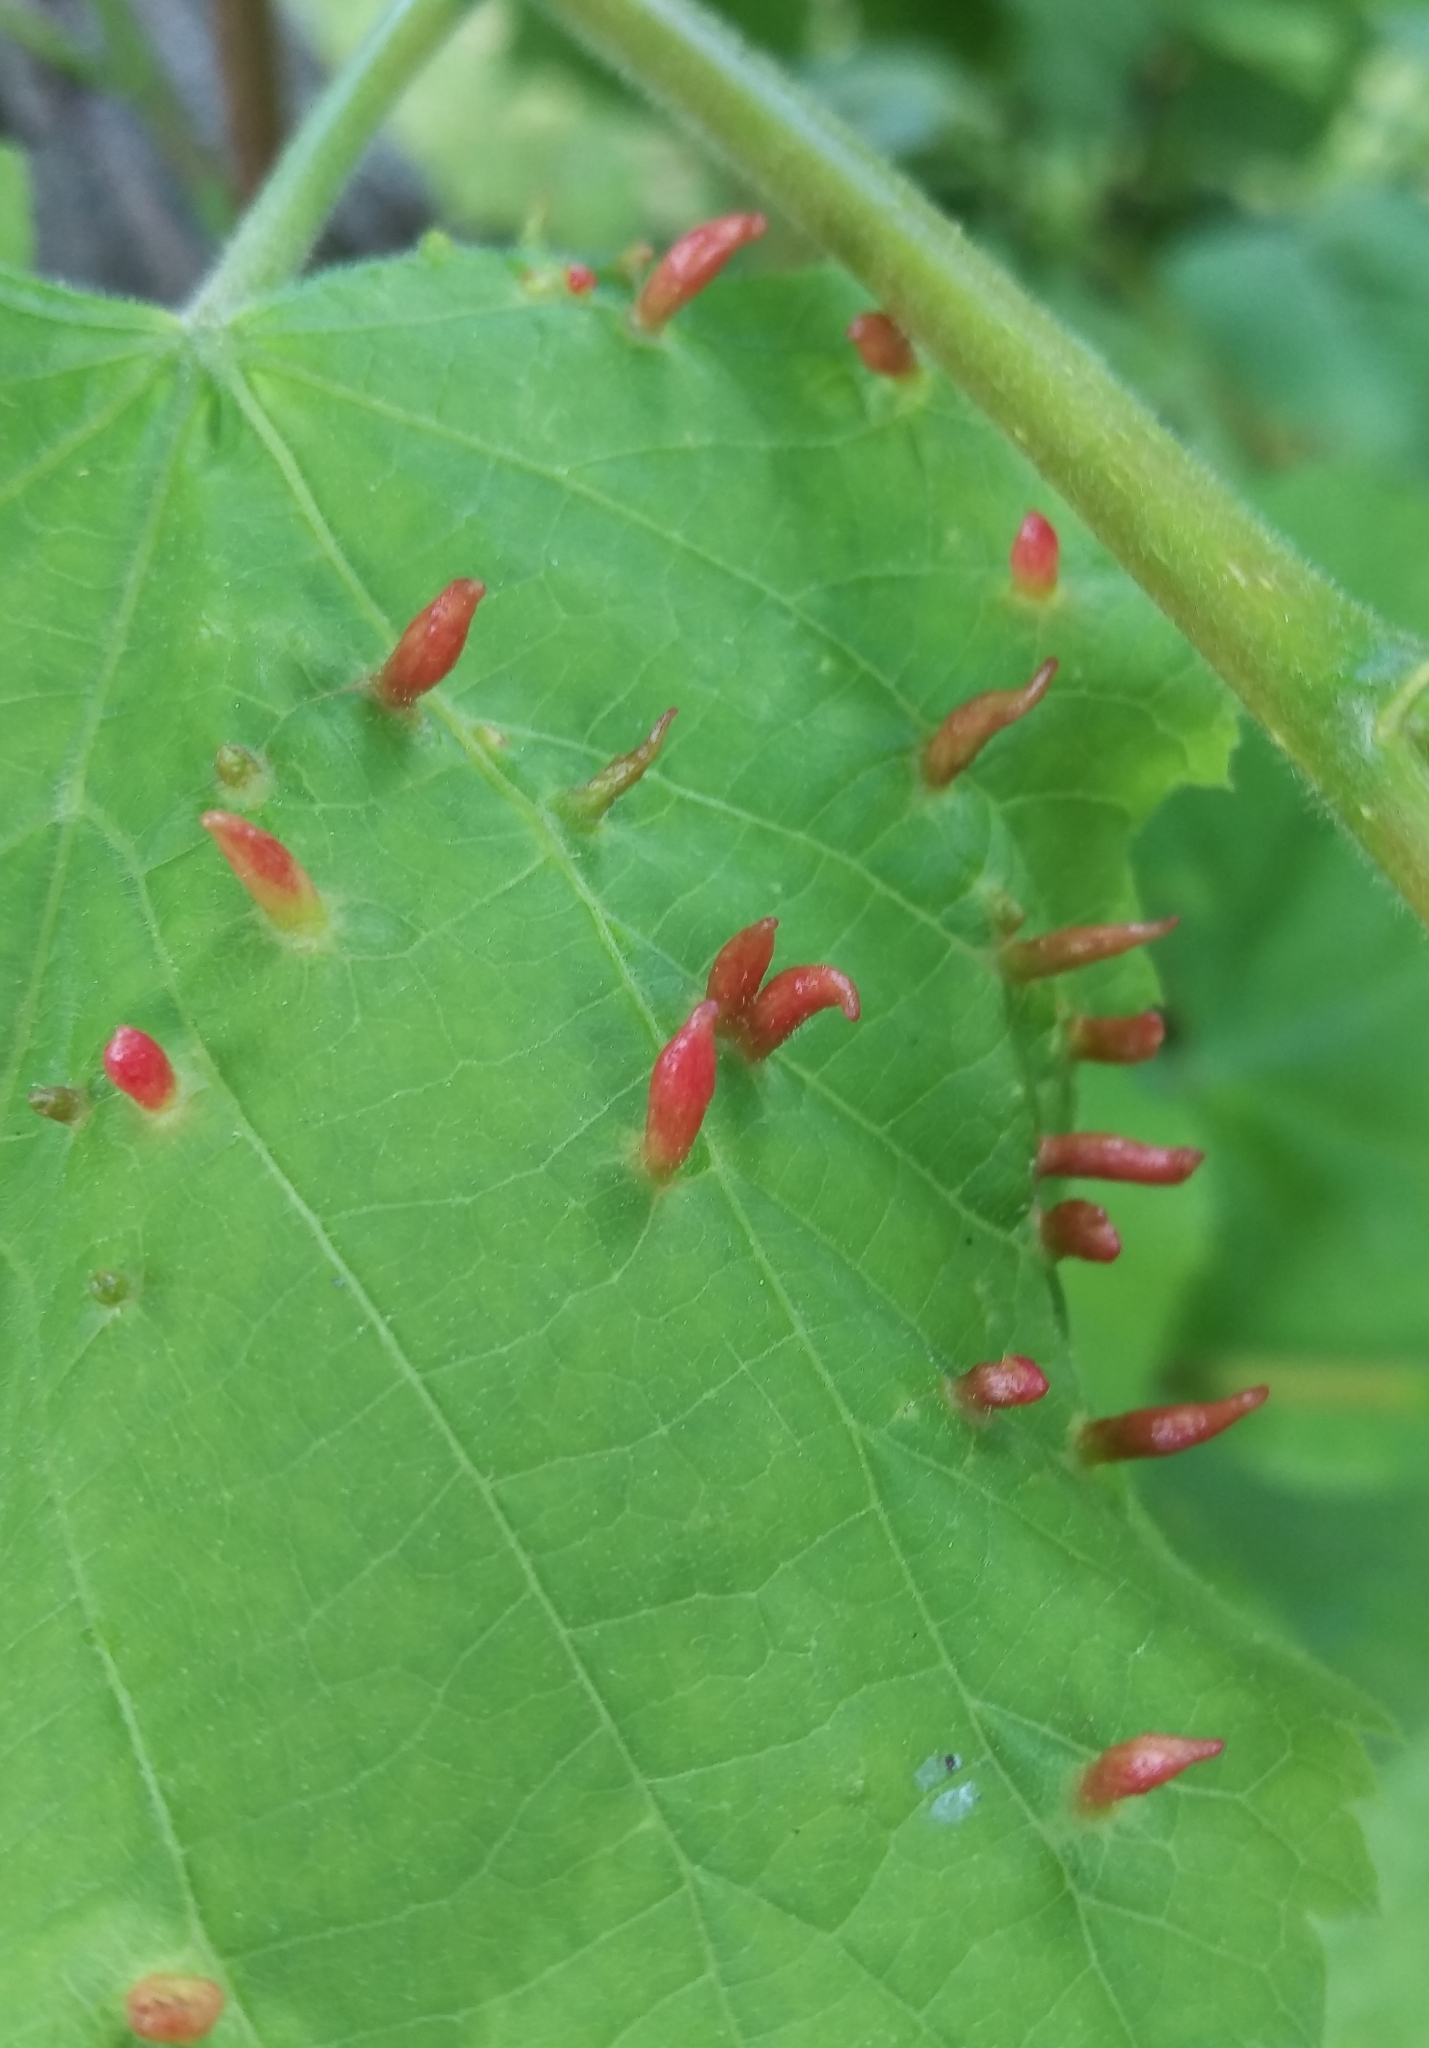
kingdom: Animalia
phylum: Arthropoda
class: Arachnida
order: Trombidiformes
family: Eriophyidae
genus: Eriophyes
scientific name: Eriophyes tiliae
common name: Red nail gall mite
